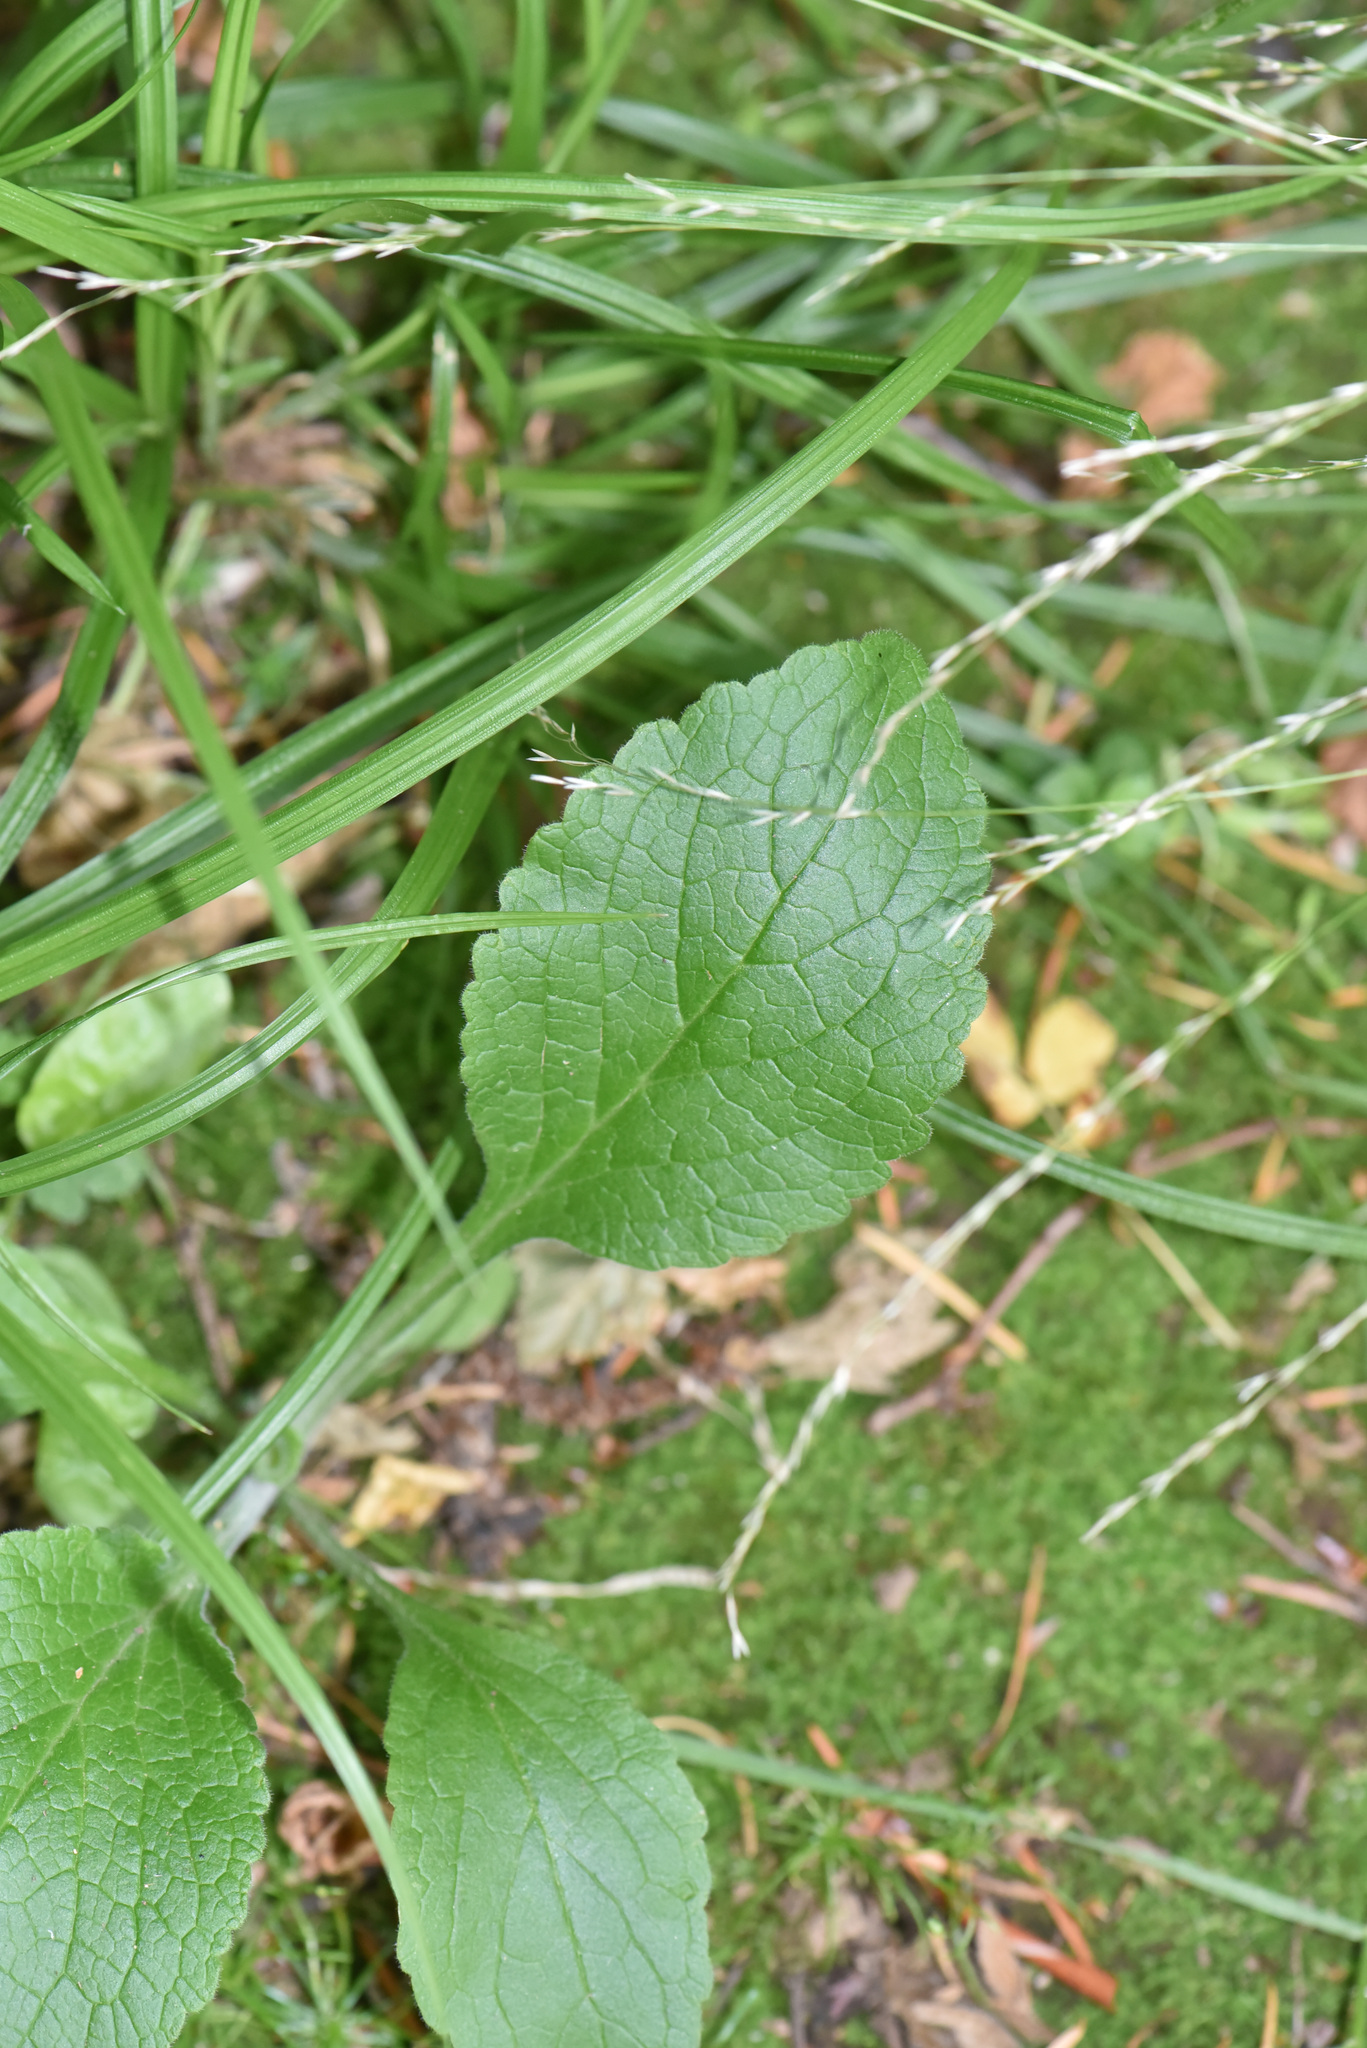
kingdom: Plantae
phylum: Tracheophyta
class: Magnoliopsida
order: Lamiales
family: Plantaginaceae
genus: Digitalis
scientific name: Digitalis purpurea
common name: Foxglove
